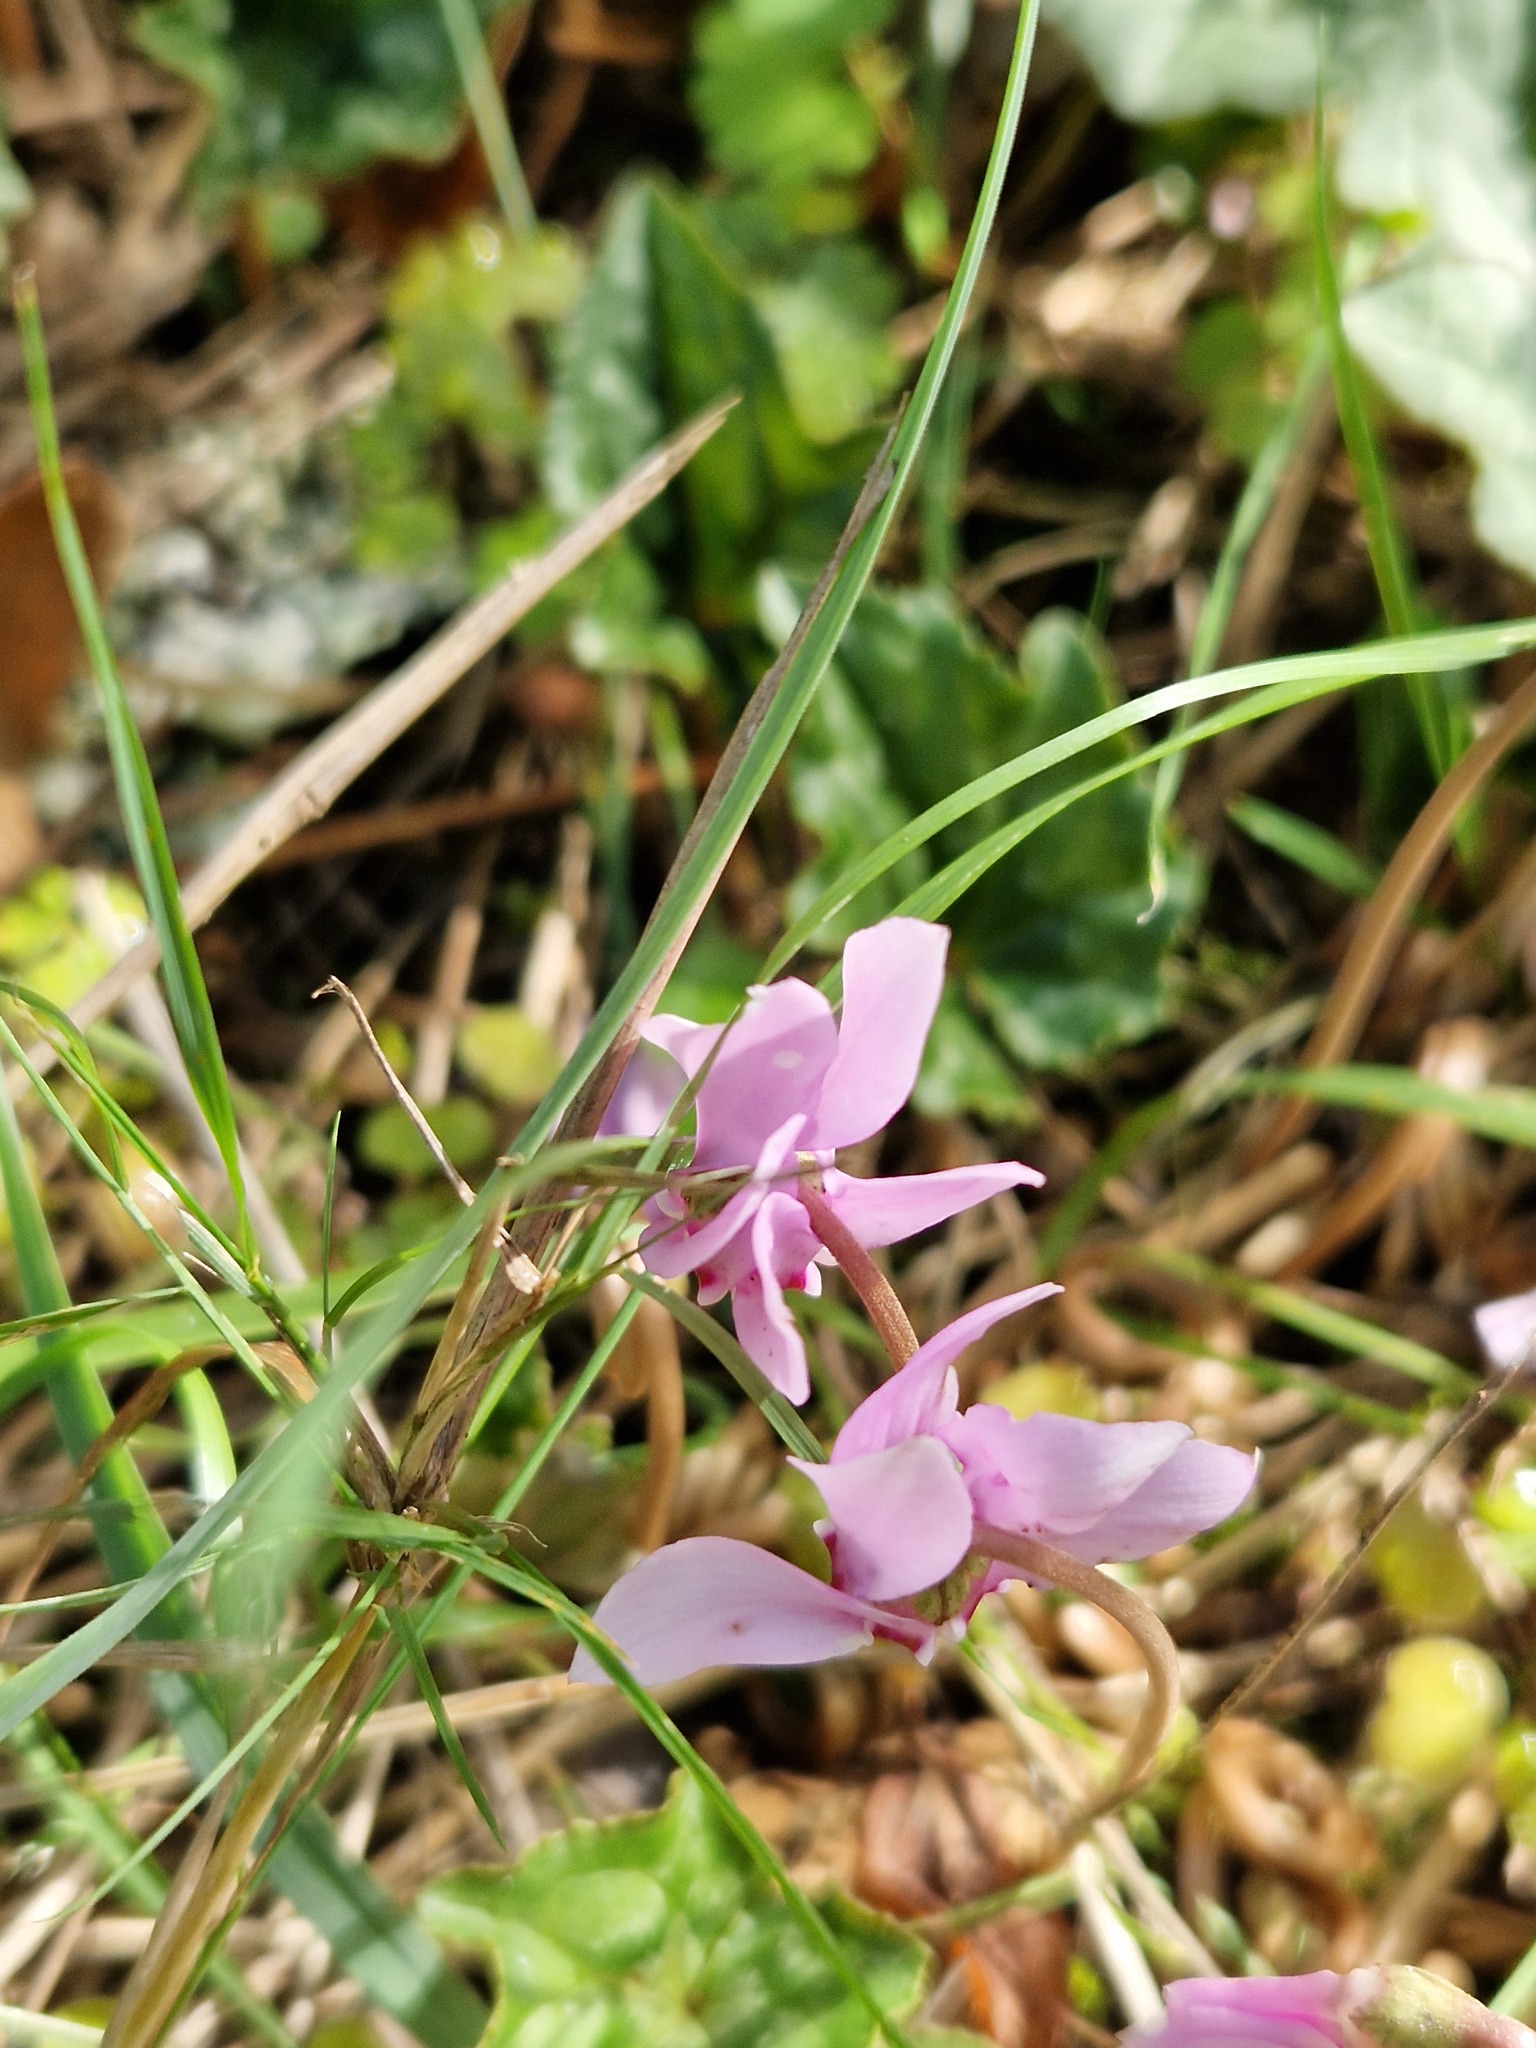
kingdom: Plantae
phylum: Tracheophyta
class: Magnoliopsida
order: Ericales
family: Primulaceae
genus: Cyclamen
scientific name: Cyclamen hederifolium
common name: Sowbread
